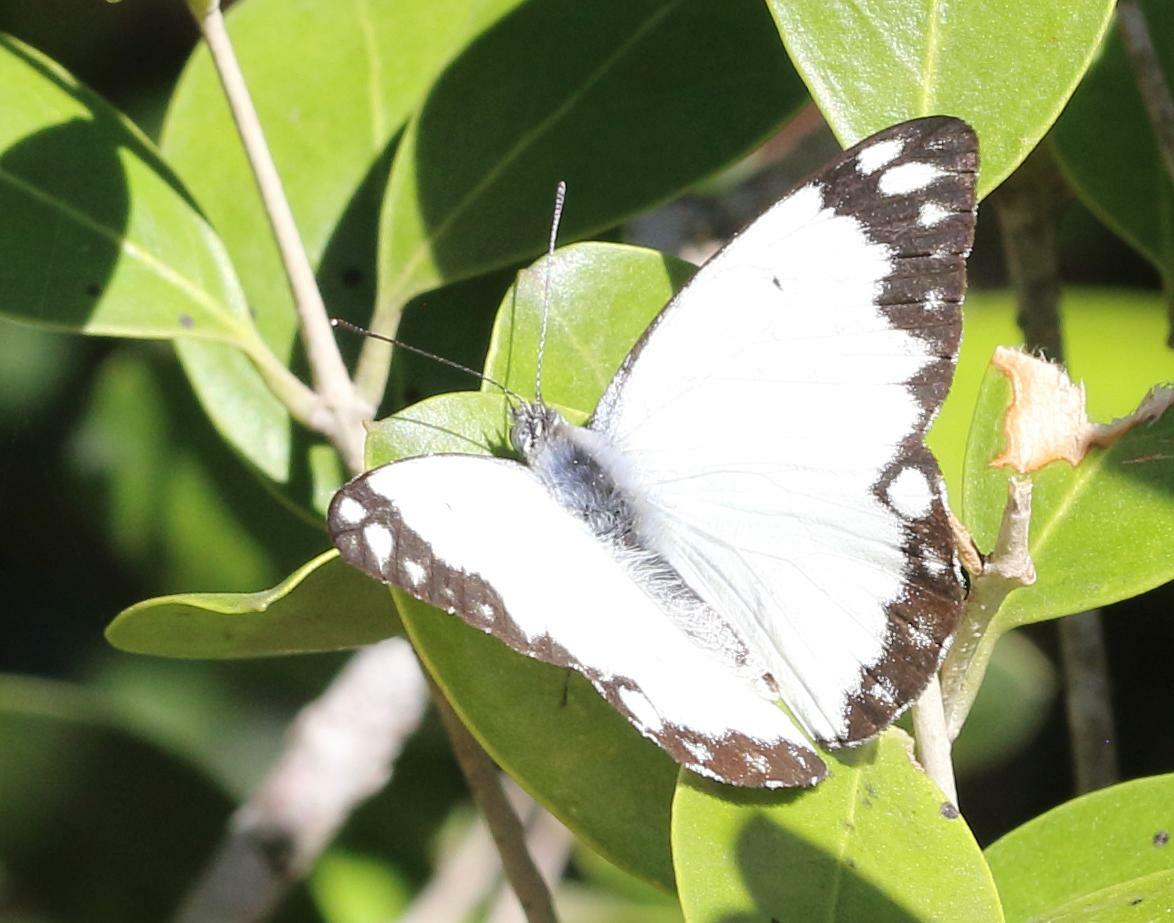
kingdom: Animalia
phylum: Arthropoda
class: Insecta
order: Lepidoptera
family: Pieridae
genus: Belenois
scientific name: Belenois creona
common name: African caper white
